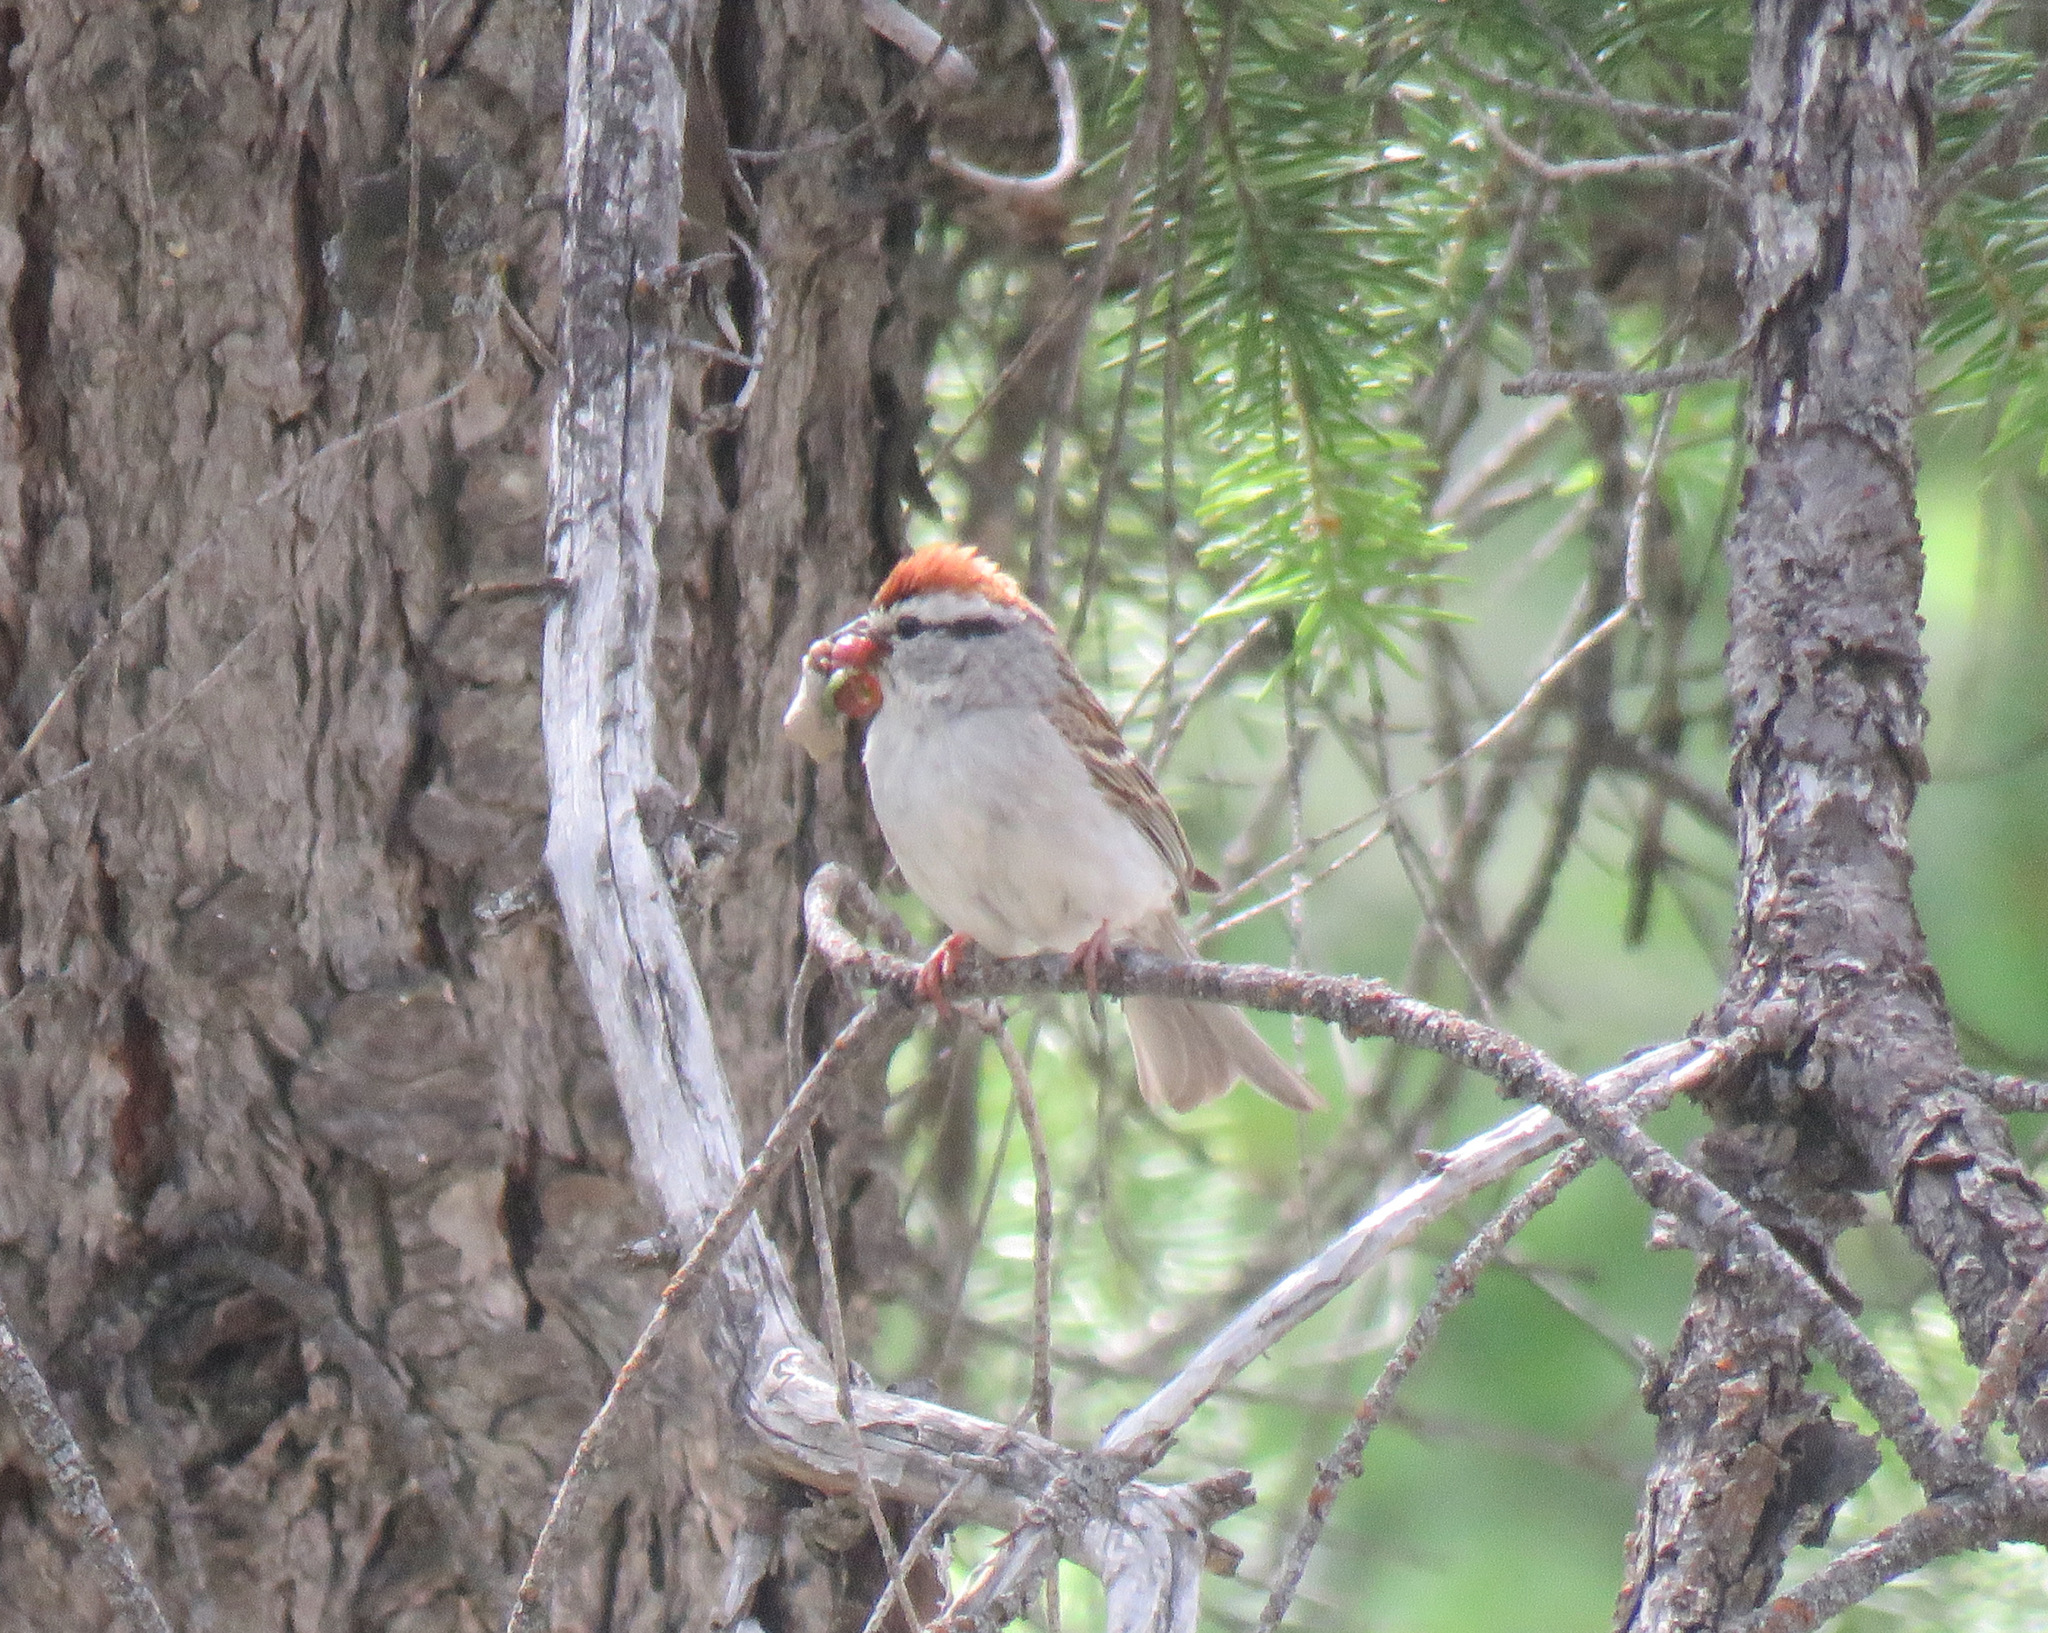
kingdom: Animalia
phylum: Chordata
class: Aves
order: Passeriformes
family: Passerellidae
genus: Spizella
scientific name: Spizella passerina
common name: Chipping sparrow
